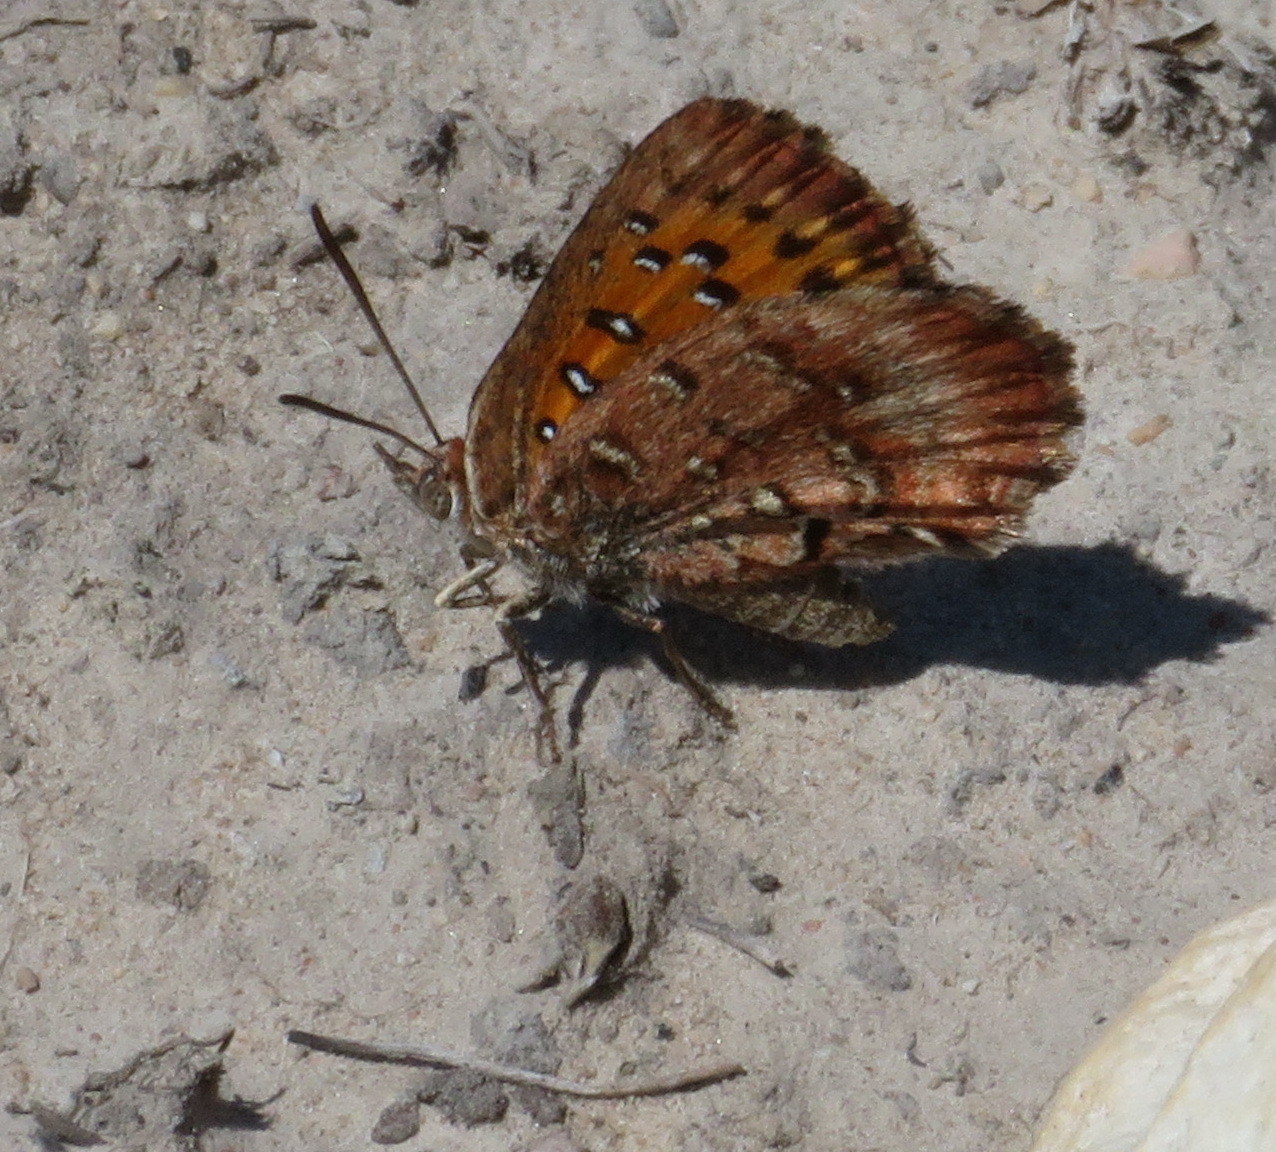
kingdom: Animalia
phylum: Arthropoda
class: Insecta
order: Lepidoptera
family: Lycaenidae
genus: Aloeides
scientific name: Aloeides pierus
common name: Dull copper
